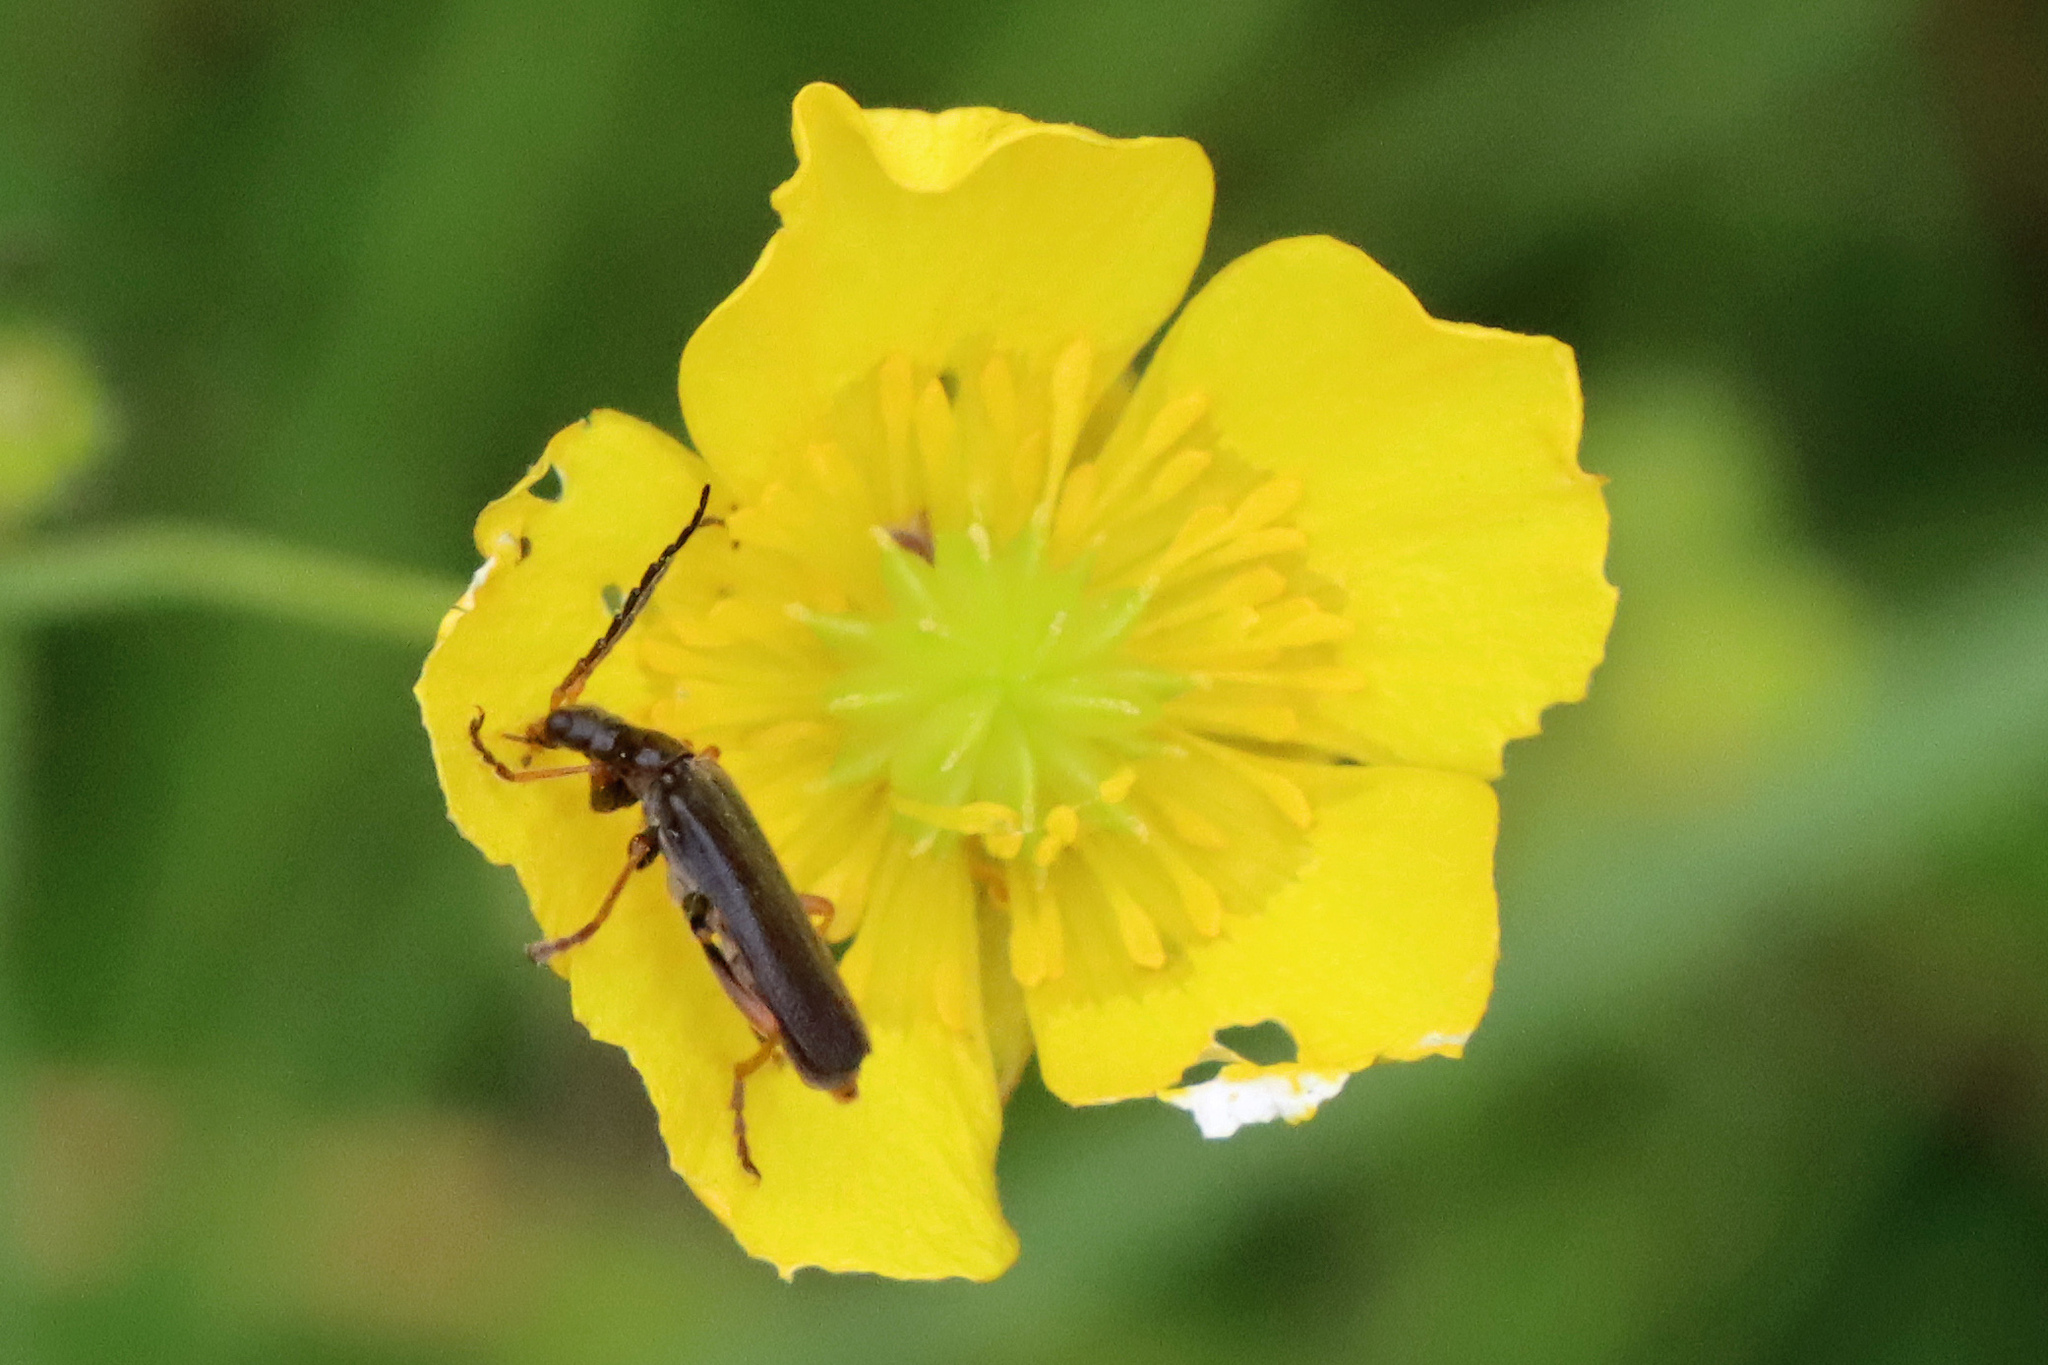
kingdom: Animalia
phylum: Arthropoda
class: Insecta
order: Coleoptera
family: Cantharidae
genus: Cantharis
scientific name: Cantharis flavilabris
